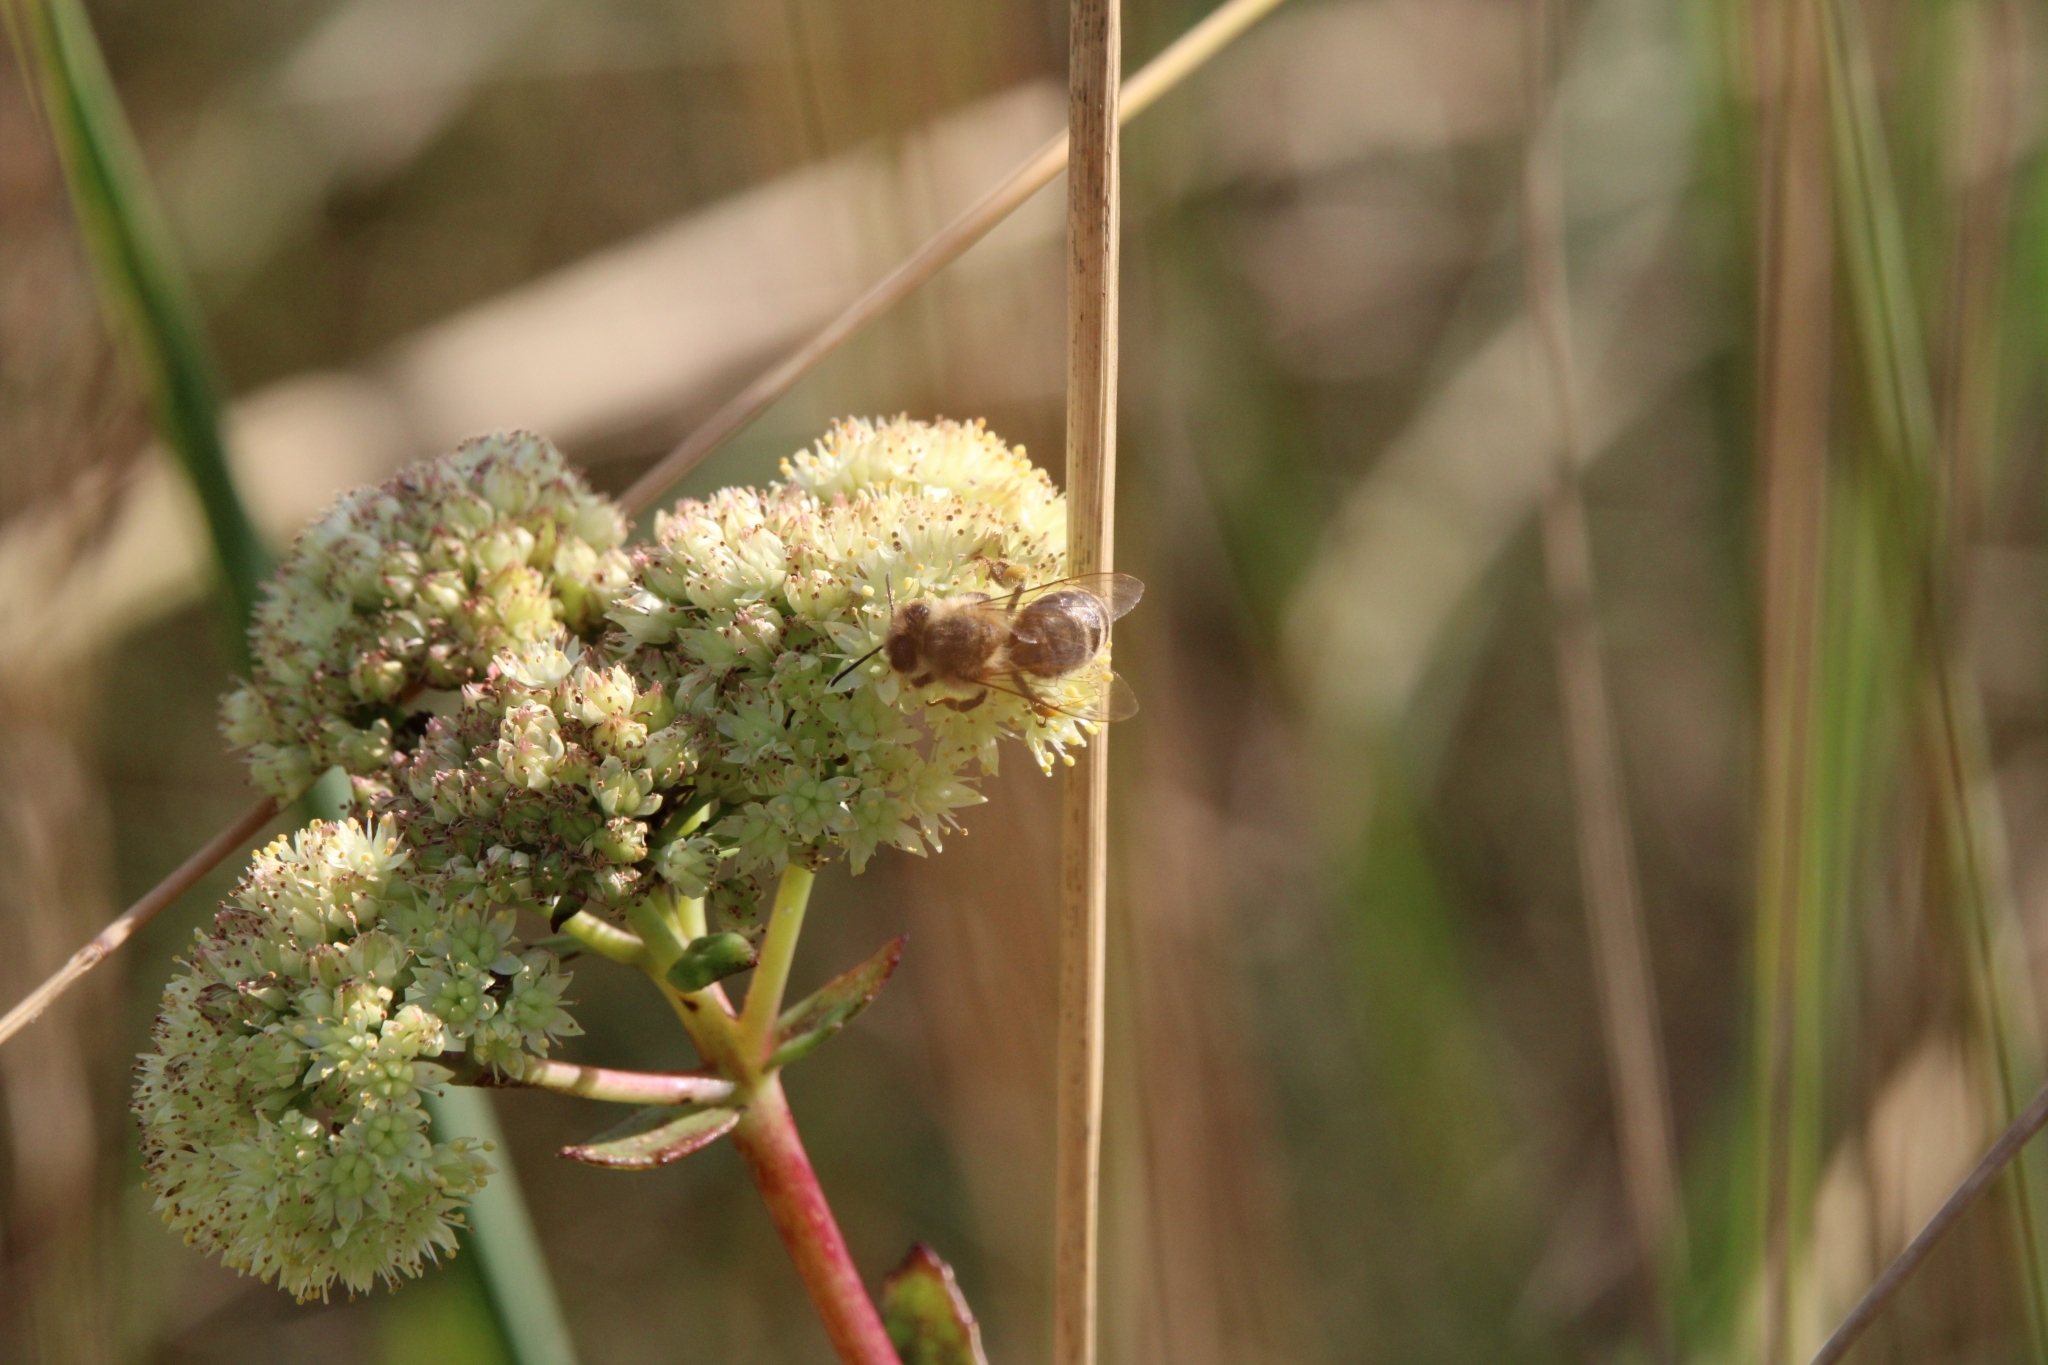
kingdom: Animalia
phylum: Arthropoda
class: Insecta
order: Hymenoptera
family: Apidae
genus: Apis
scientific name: Apis mellifera
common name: Honey bee
